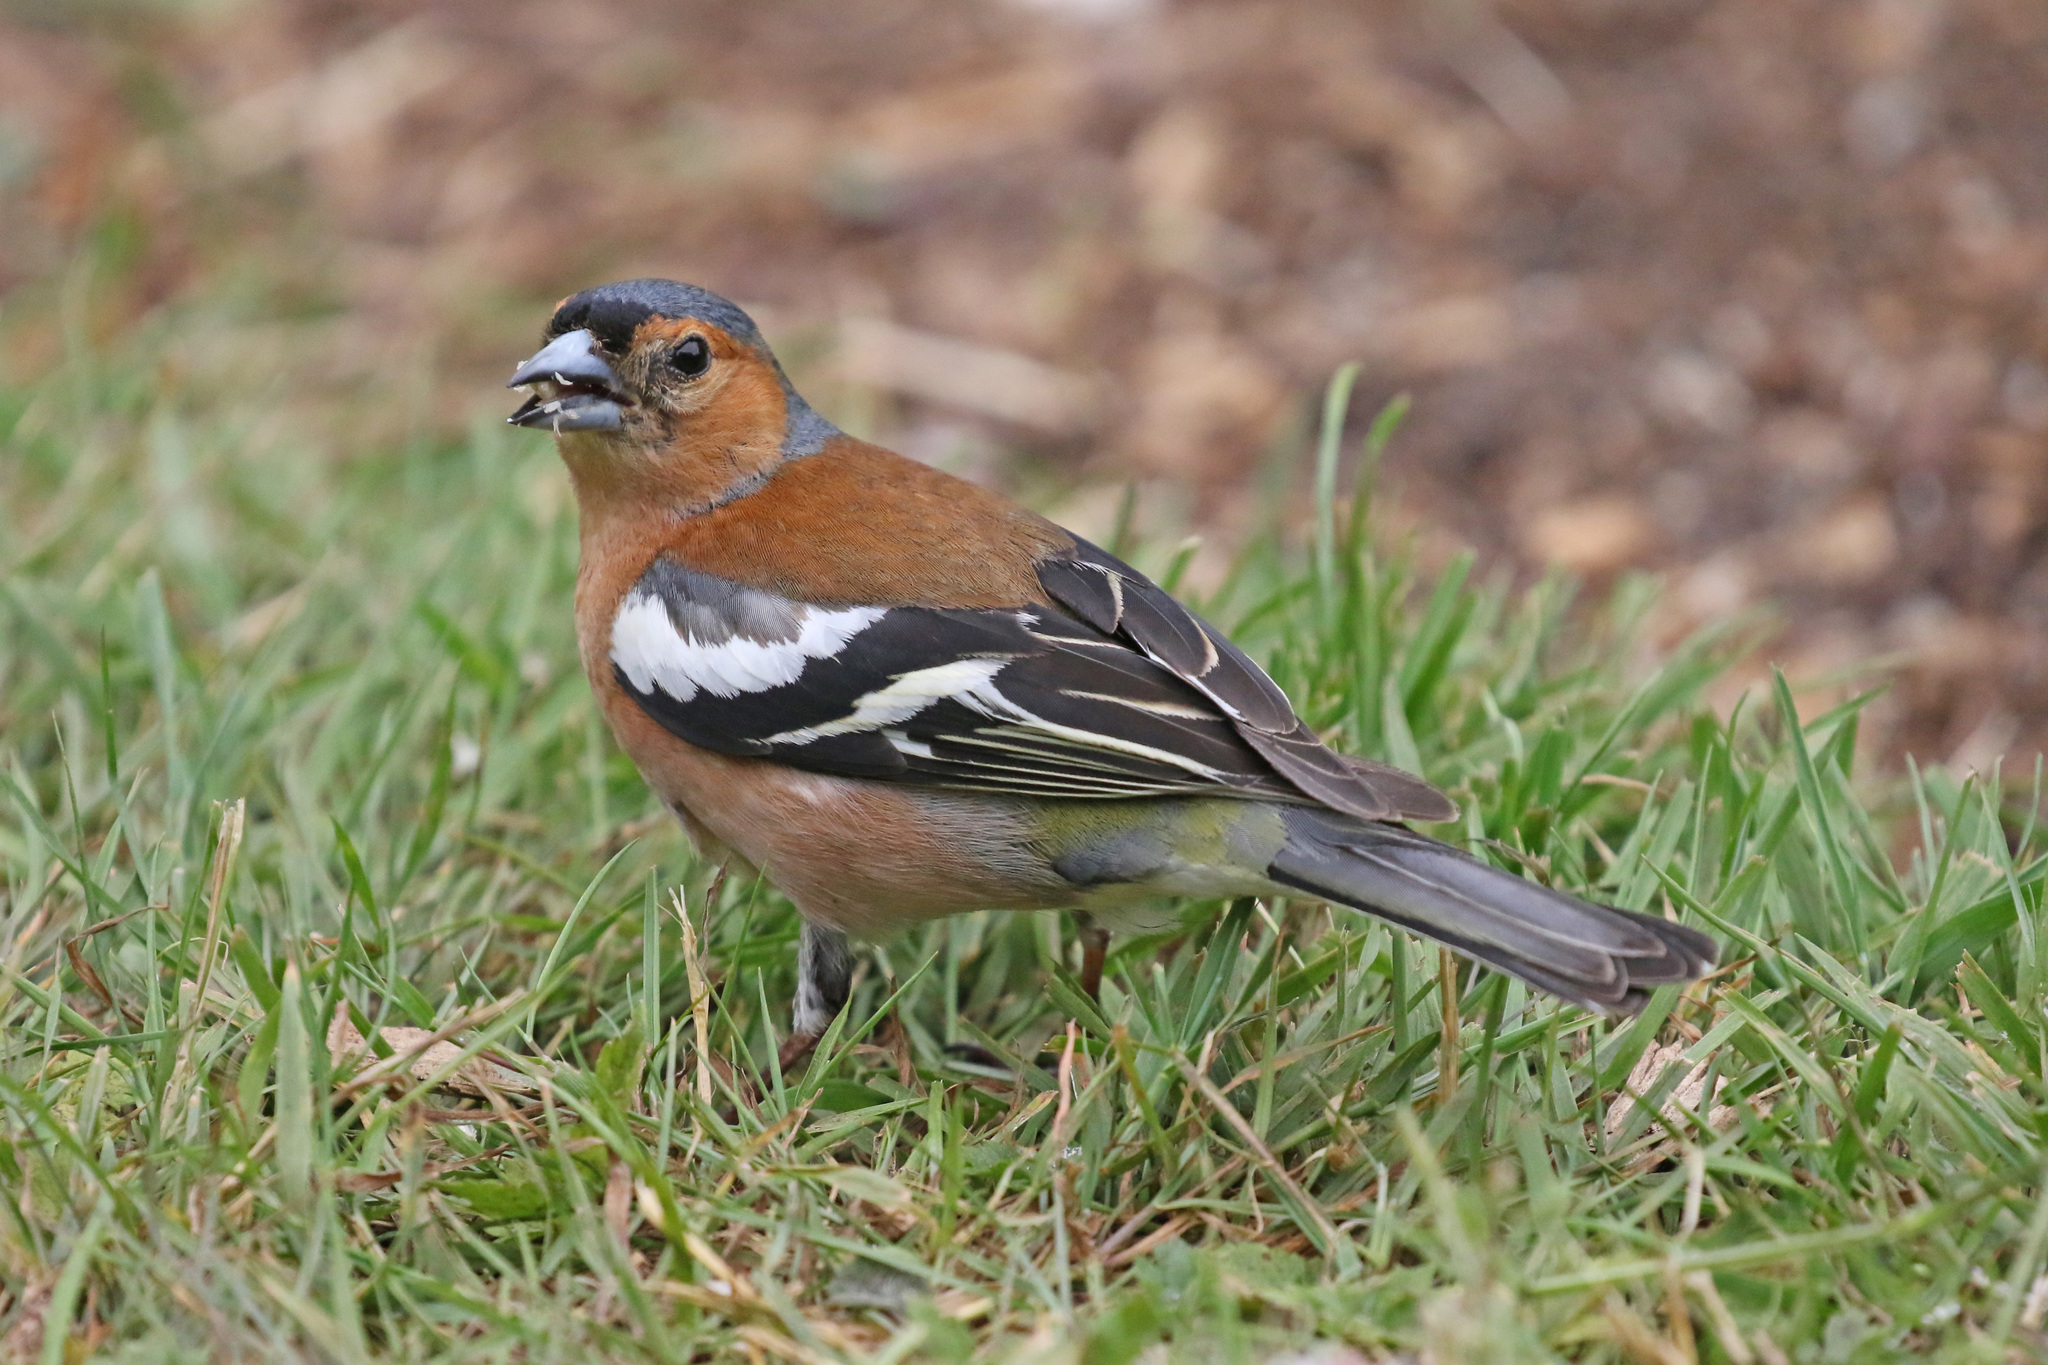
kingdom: Animalia
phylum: Chordata
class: Aves
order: Passeriformes
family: Fringillidae
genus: Fringilla
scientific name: Fringilla coelebs
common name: Common chaffinch
